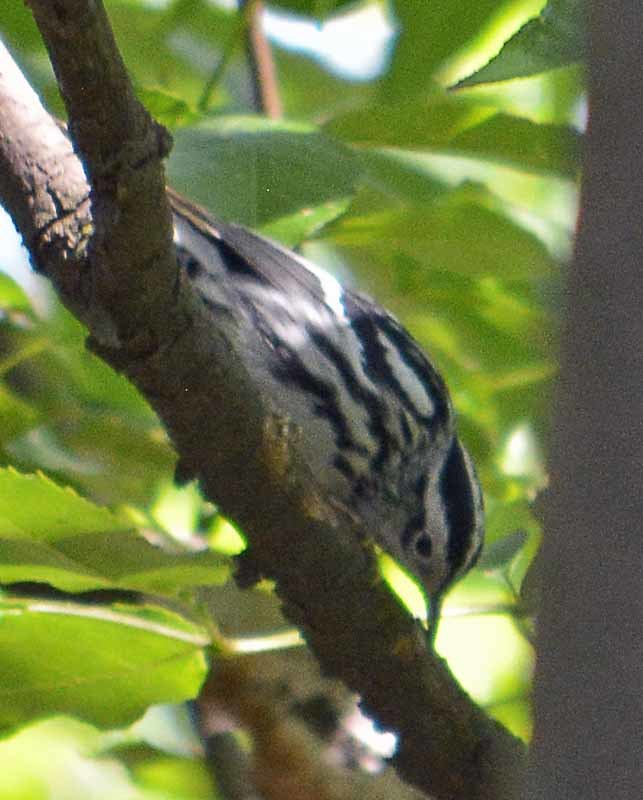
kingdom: Animalia
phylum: Chordata
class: Aves
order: Passeriformes
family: Parulidae
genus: Mniotilta
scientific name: Mniotilta varia
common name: Black-and-white warbler
